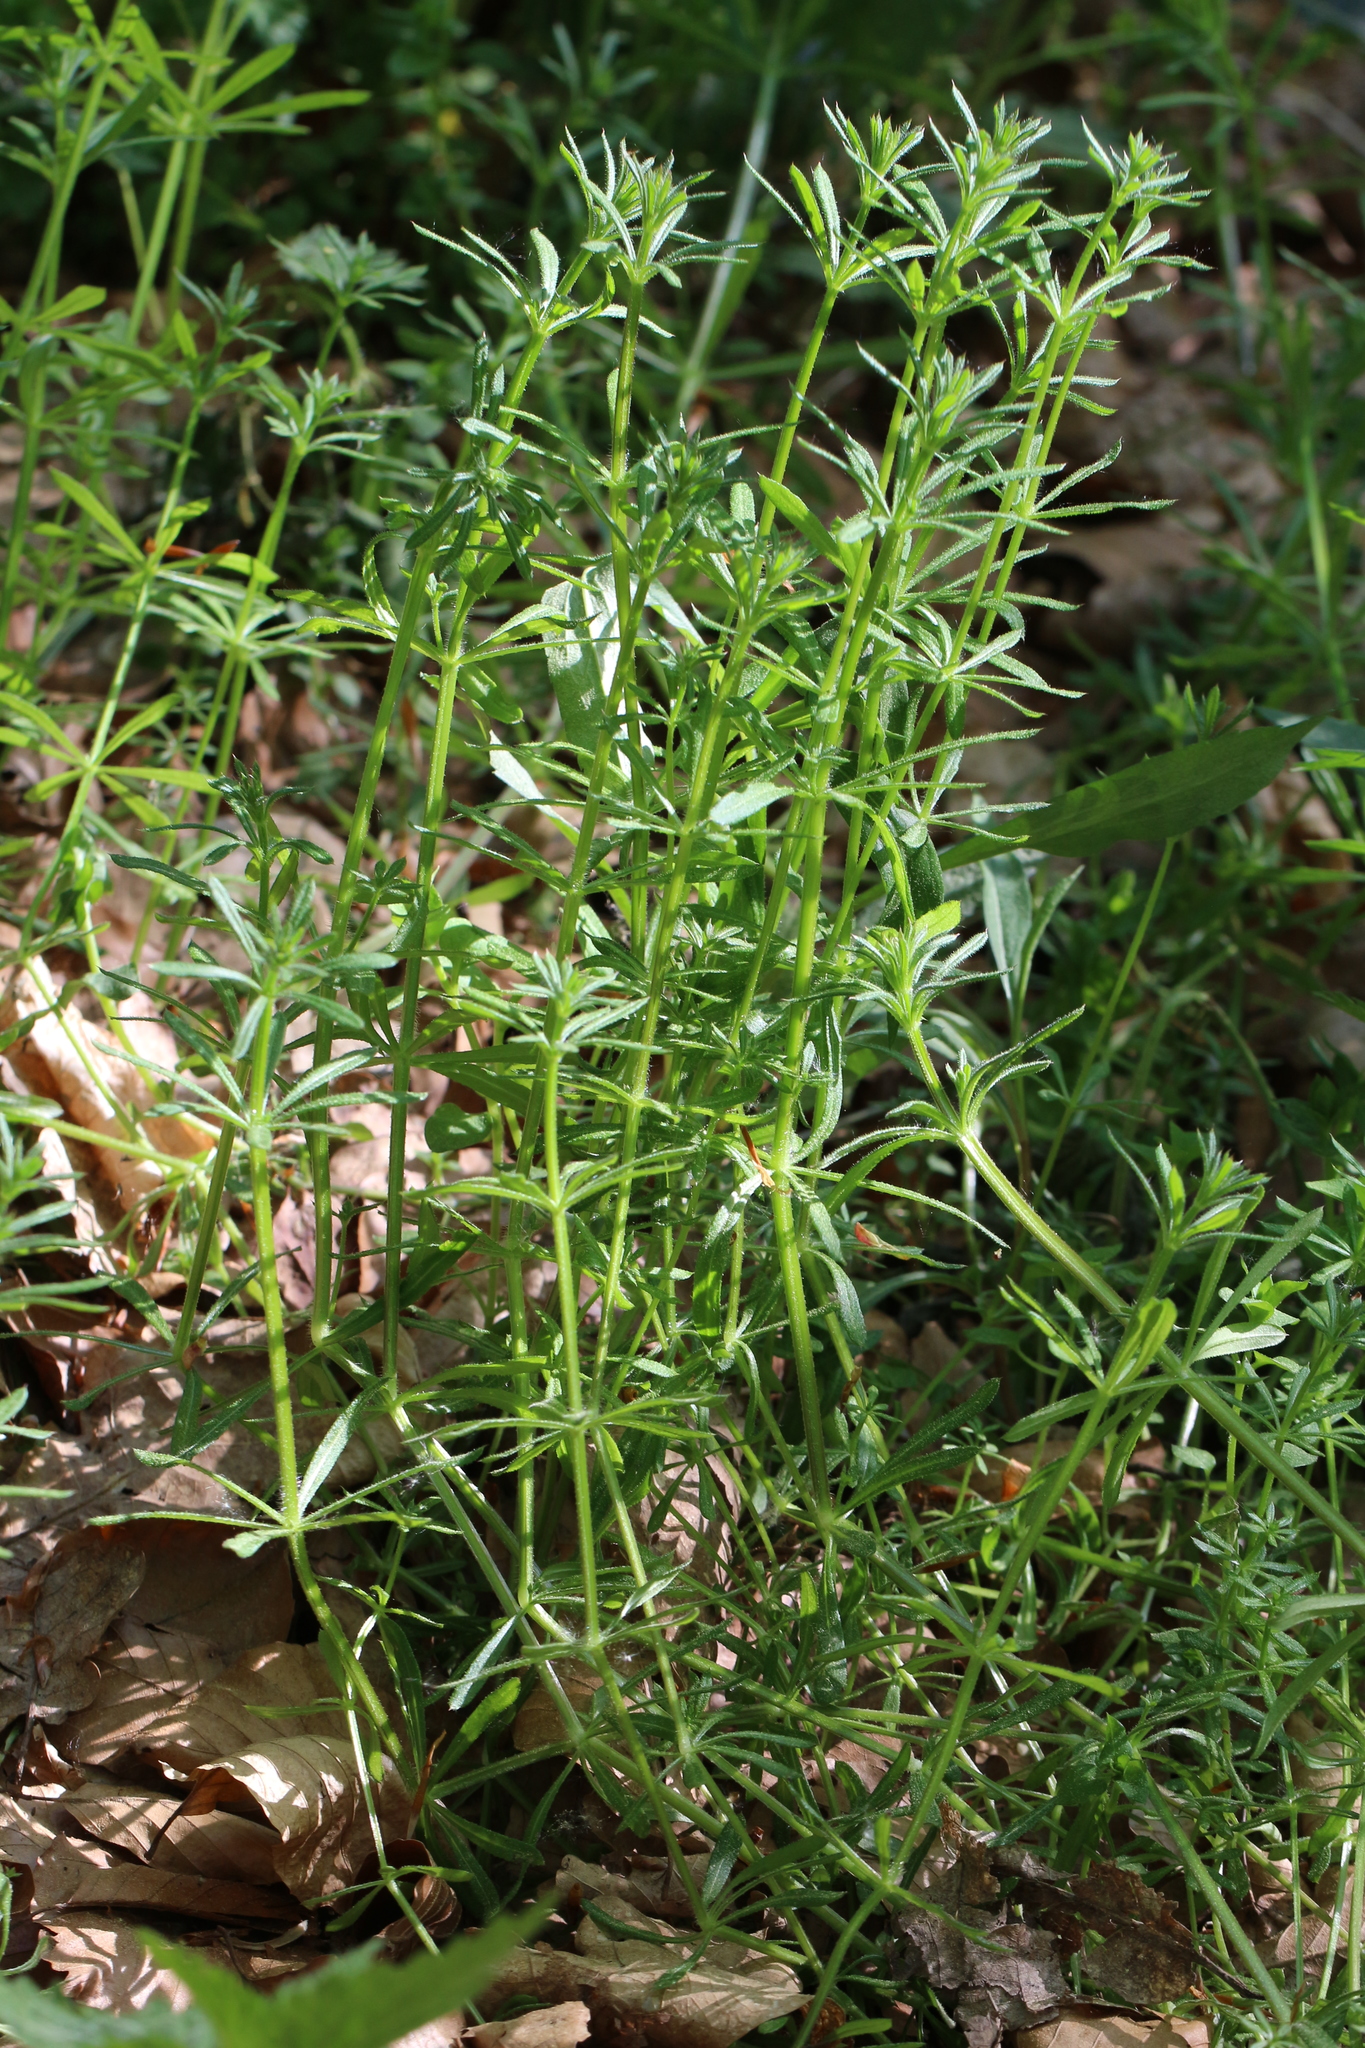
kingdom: Plantae
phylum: Tracheophyta
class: Magnoliopsida
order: Gentianales
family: Rubiaceae
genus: Galium
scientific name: Galium aparine
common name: Cleavers
